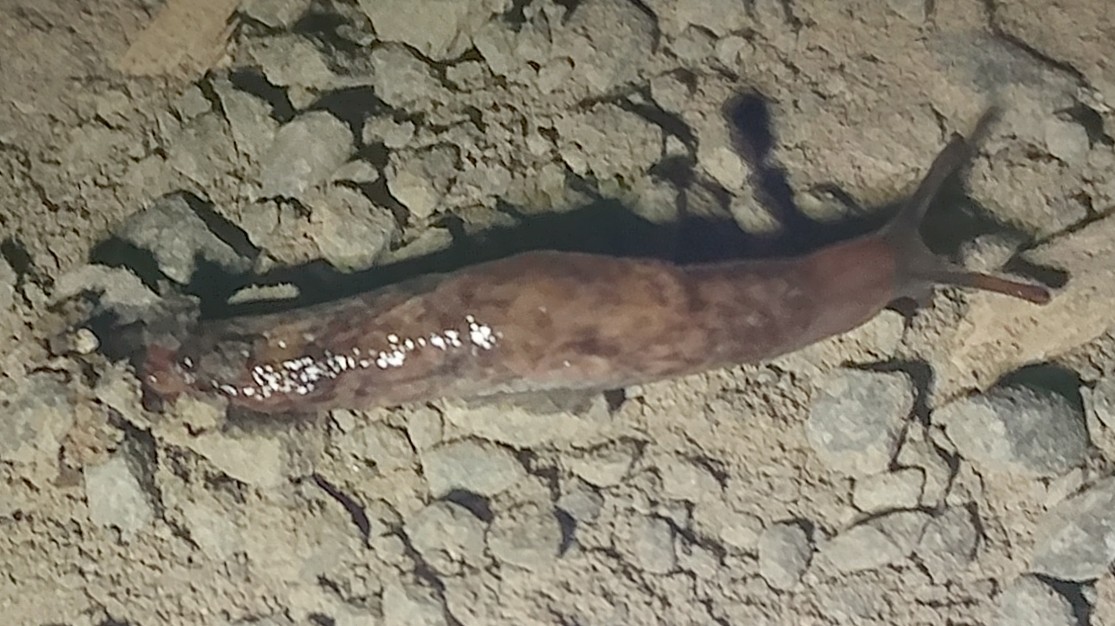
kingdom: Animalia
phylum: Mollusca
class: Gastropoda
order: Stylommatophora
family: Agriolimacidae
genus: Deroceras
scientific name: Deroceras reticulatum
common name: Gray field slug
